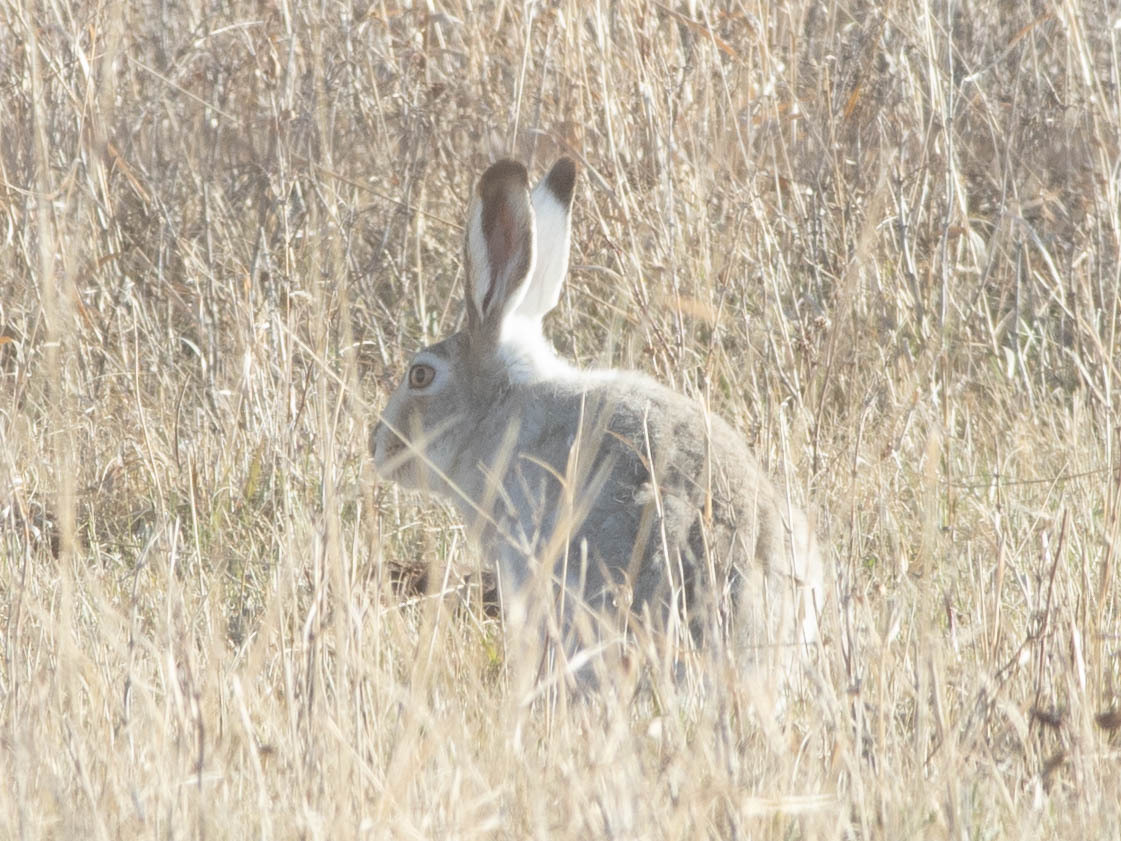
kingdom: Animalia
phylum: Chordata
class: Mammalia
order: Lagomorpha
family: Leporidae
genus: Lepus
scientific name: Lepus townsendii
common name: White-tailed jackrabbit
